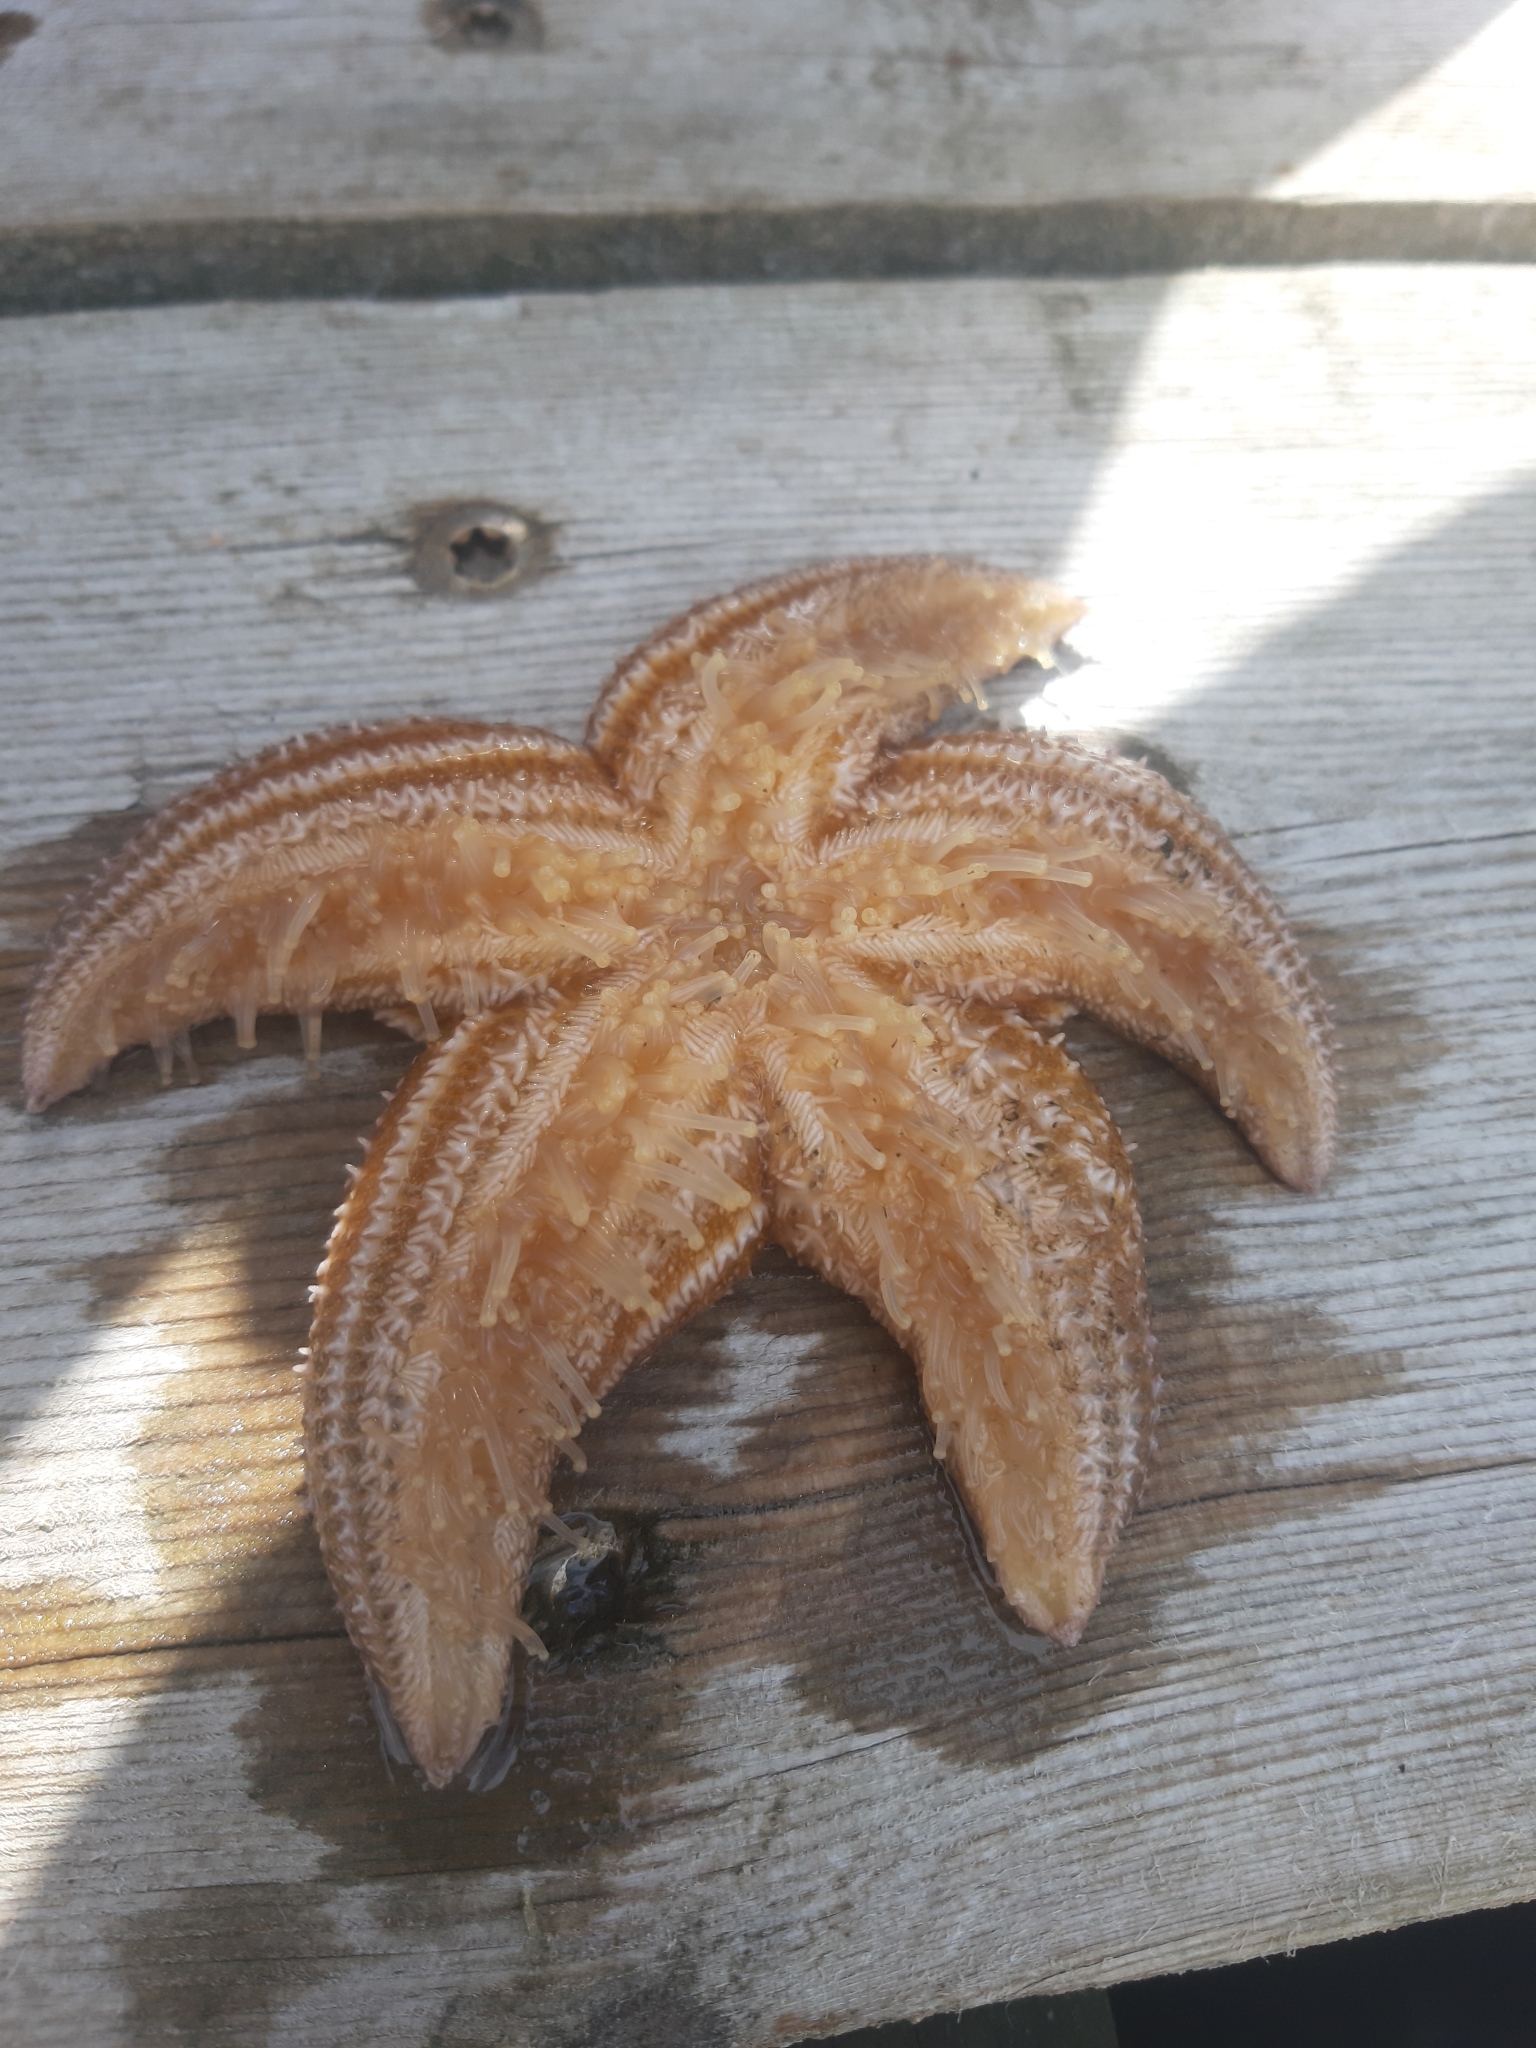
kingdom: Animalia
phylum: Echinodermata
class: Asteroidea
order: Forcipulatida
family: Asteriidae
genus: Asterias
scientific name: Asterias rubens
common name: Common starfish
